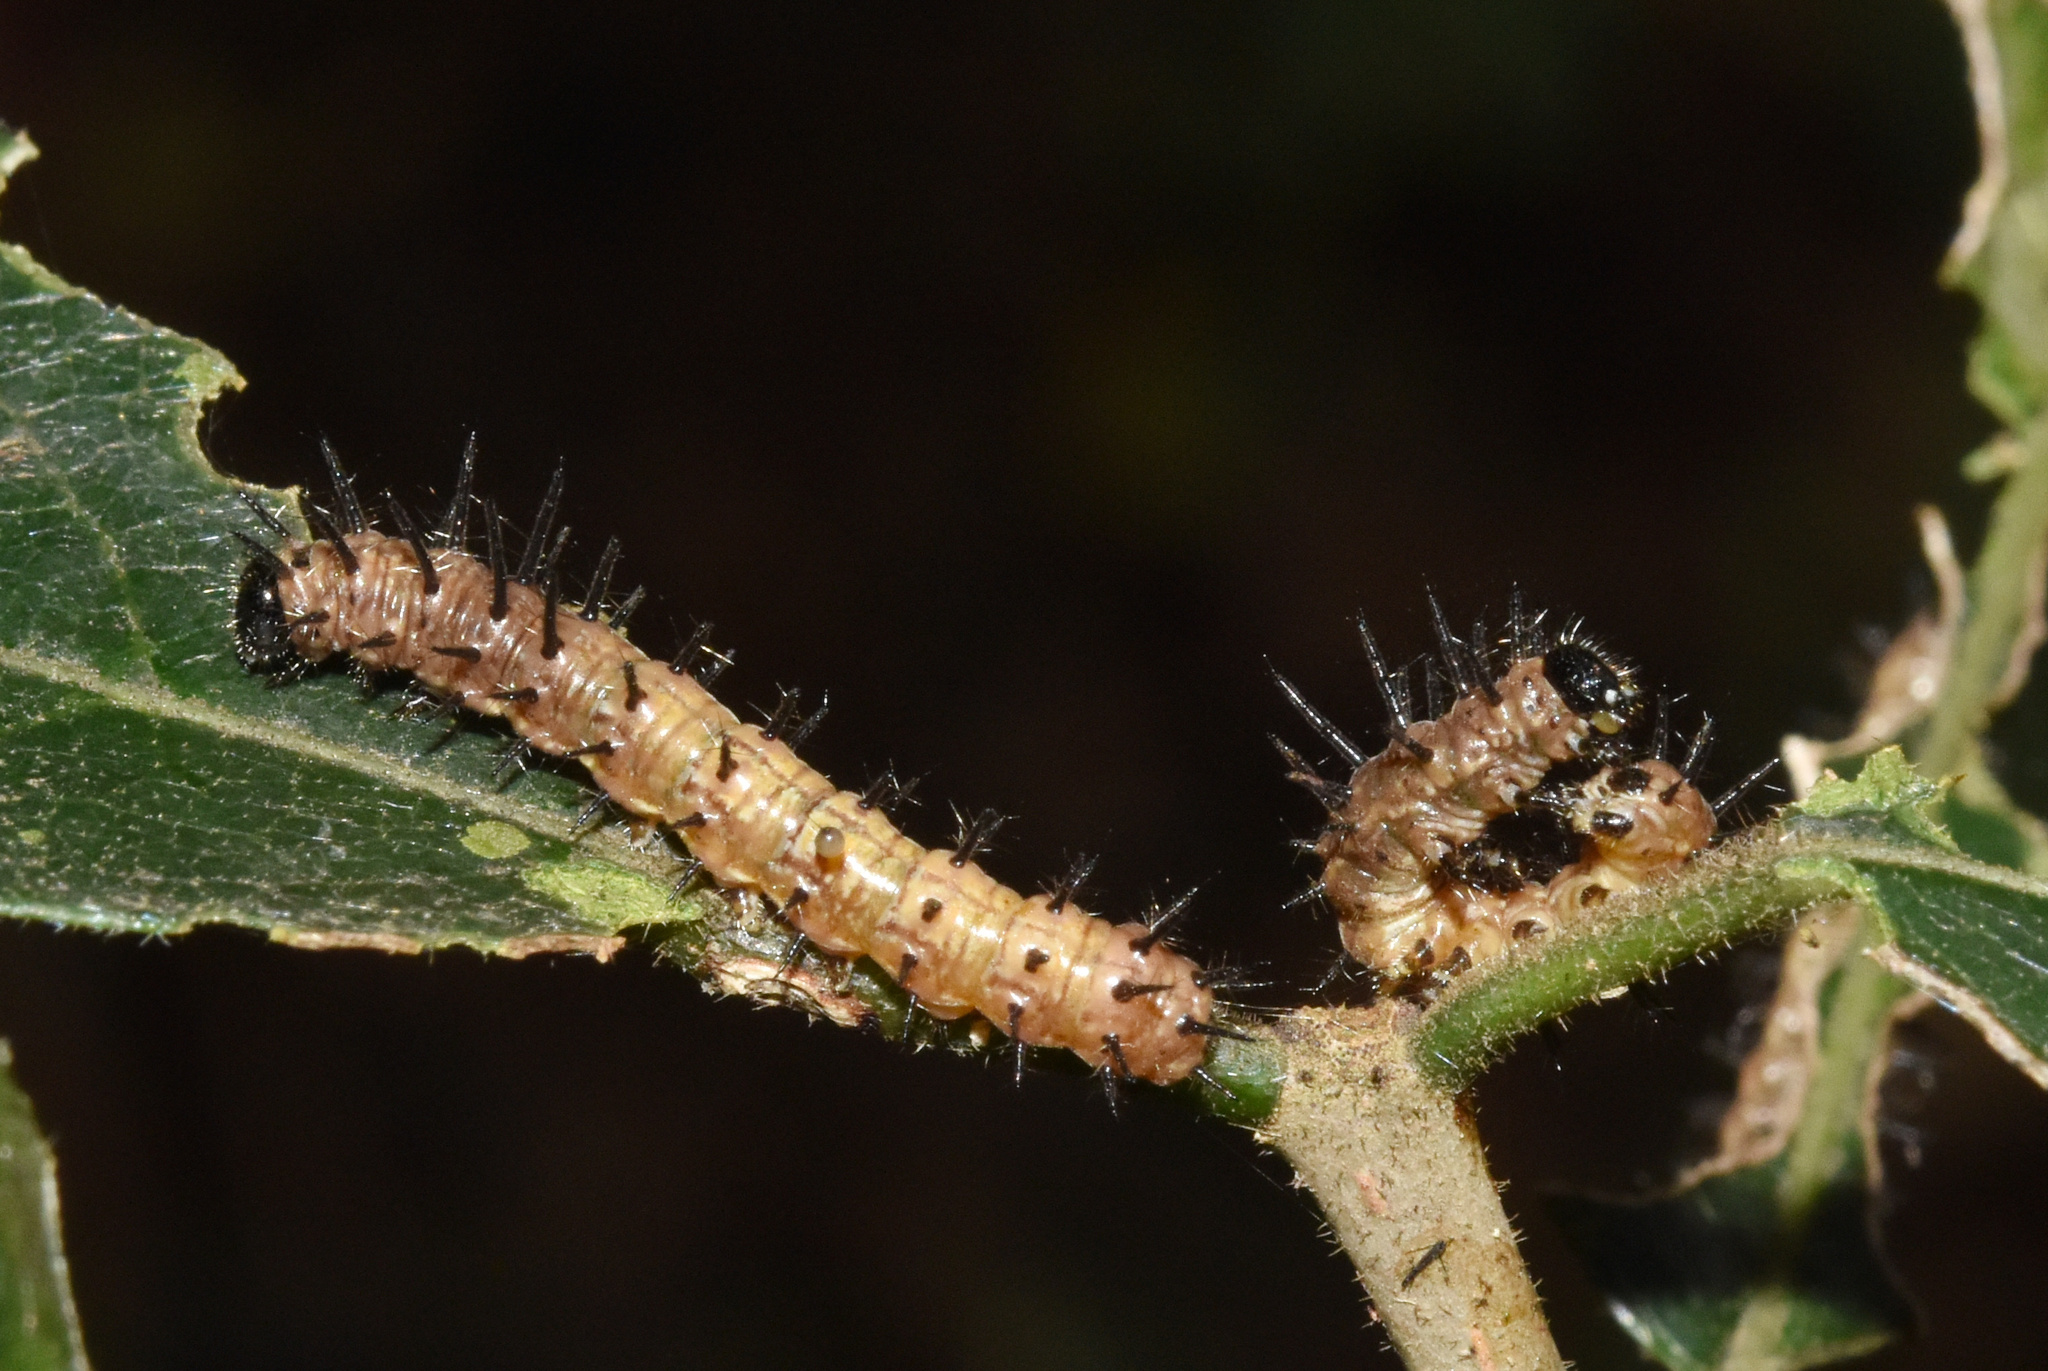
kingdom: Animalia
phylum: Arthropoda
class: Insecta
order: Lepidoptera
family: Nymphalidae
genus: Rubraea
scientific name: Rubraea
